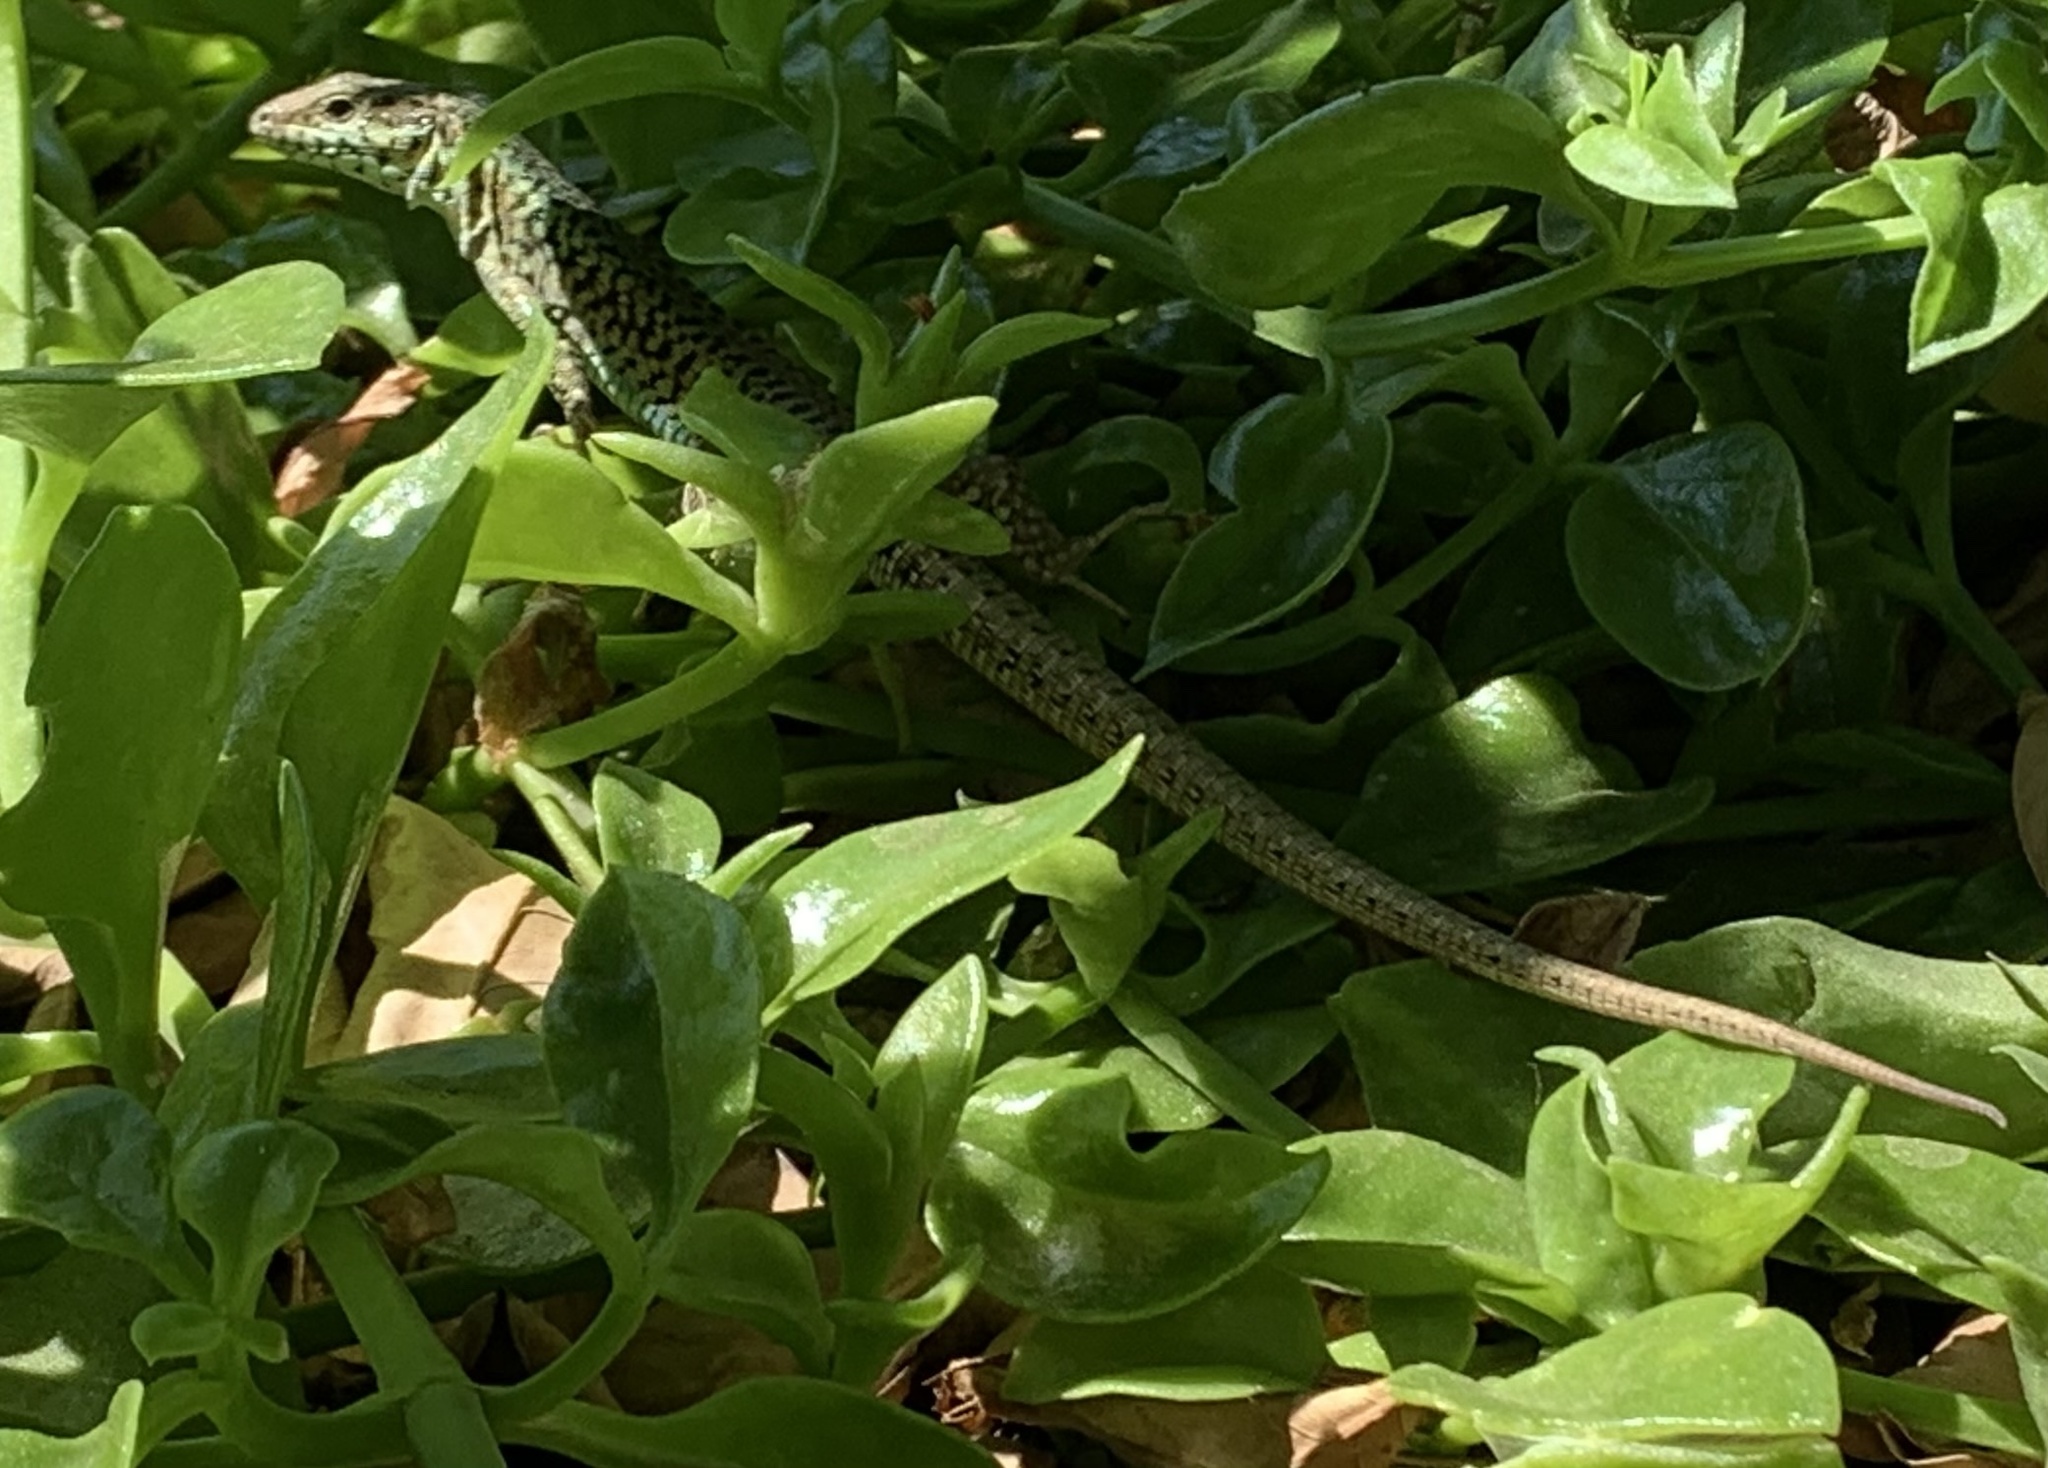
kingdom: Animalia
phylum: Chordata
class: Squamata
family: Lacertidae
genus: Podarcis
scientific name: Podarcis erhardii
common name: Erhard's wall lizard
